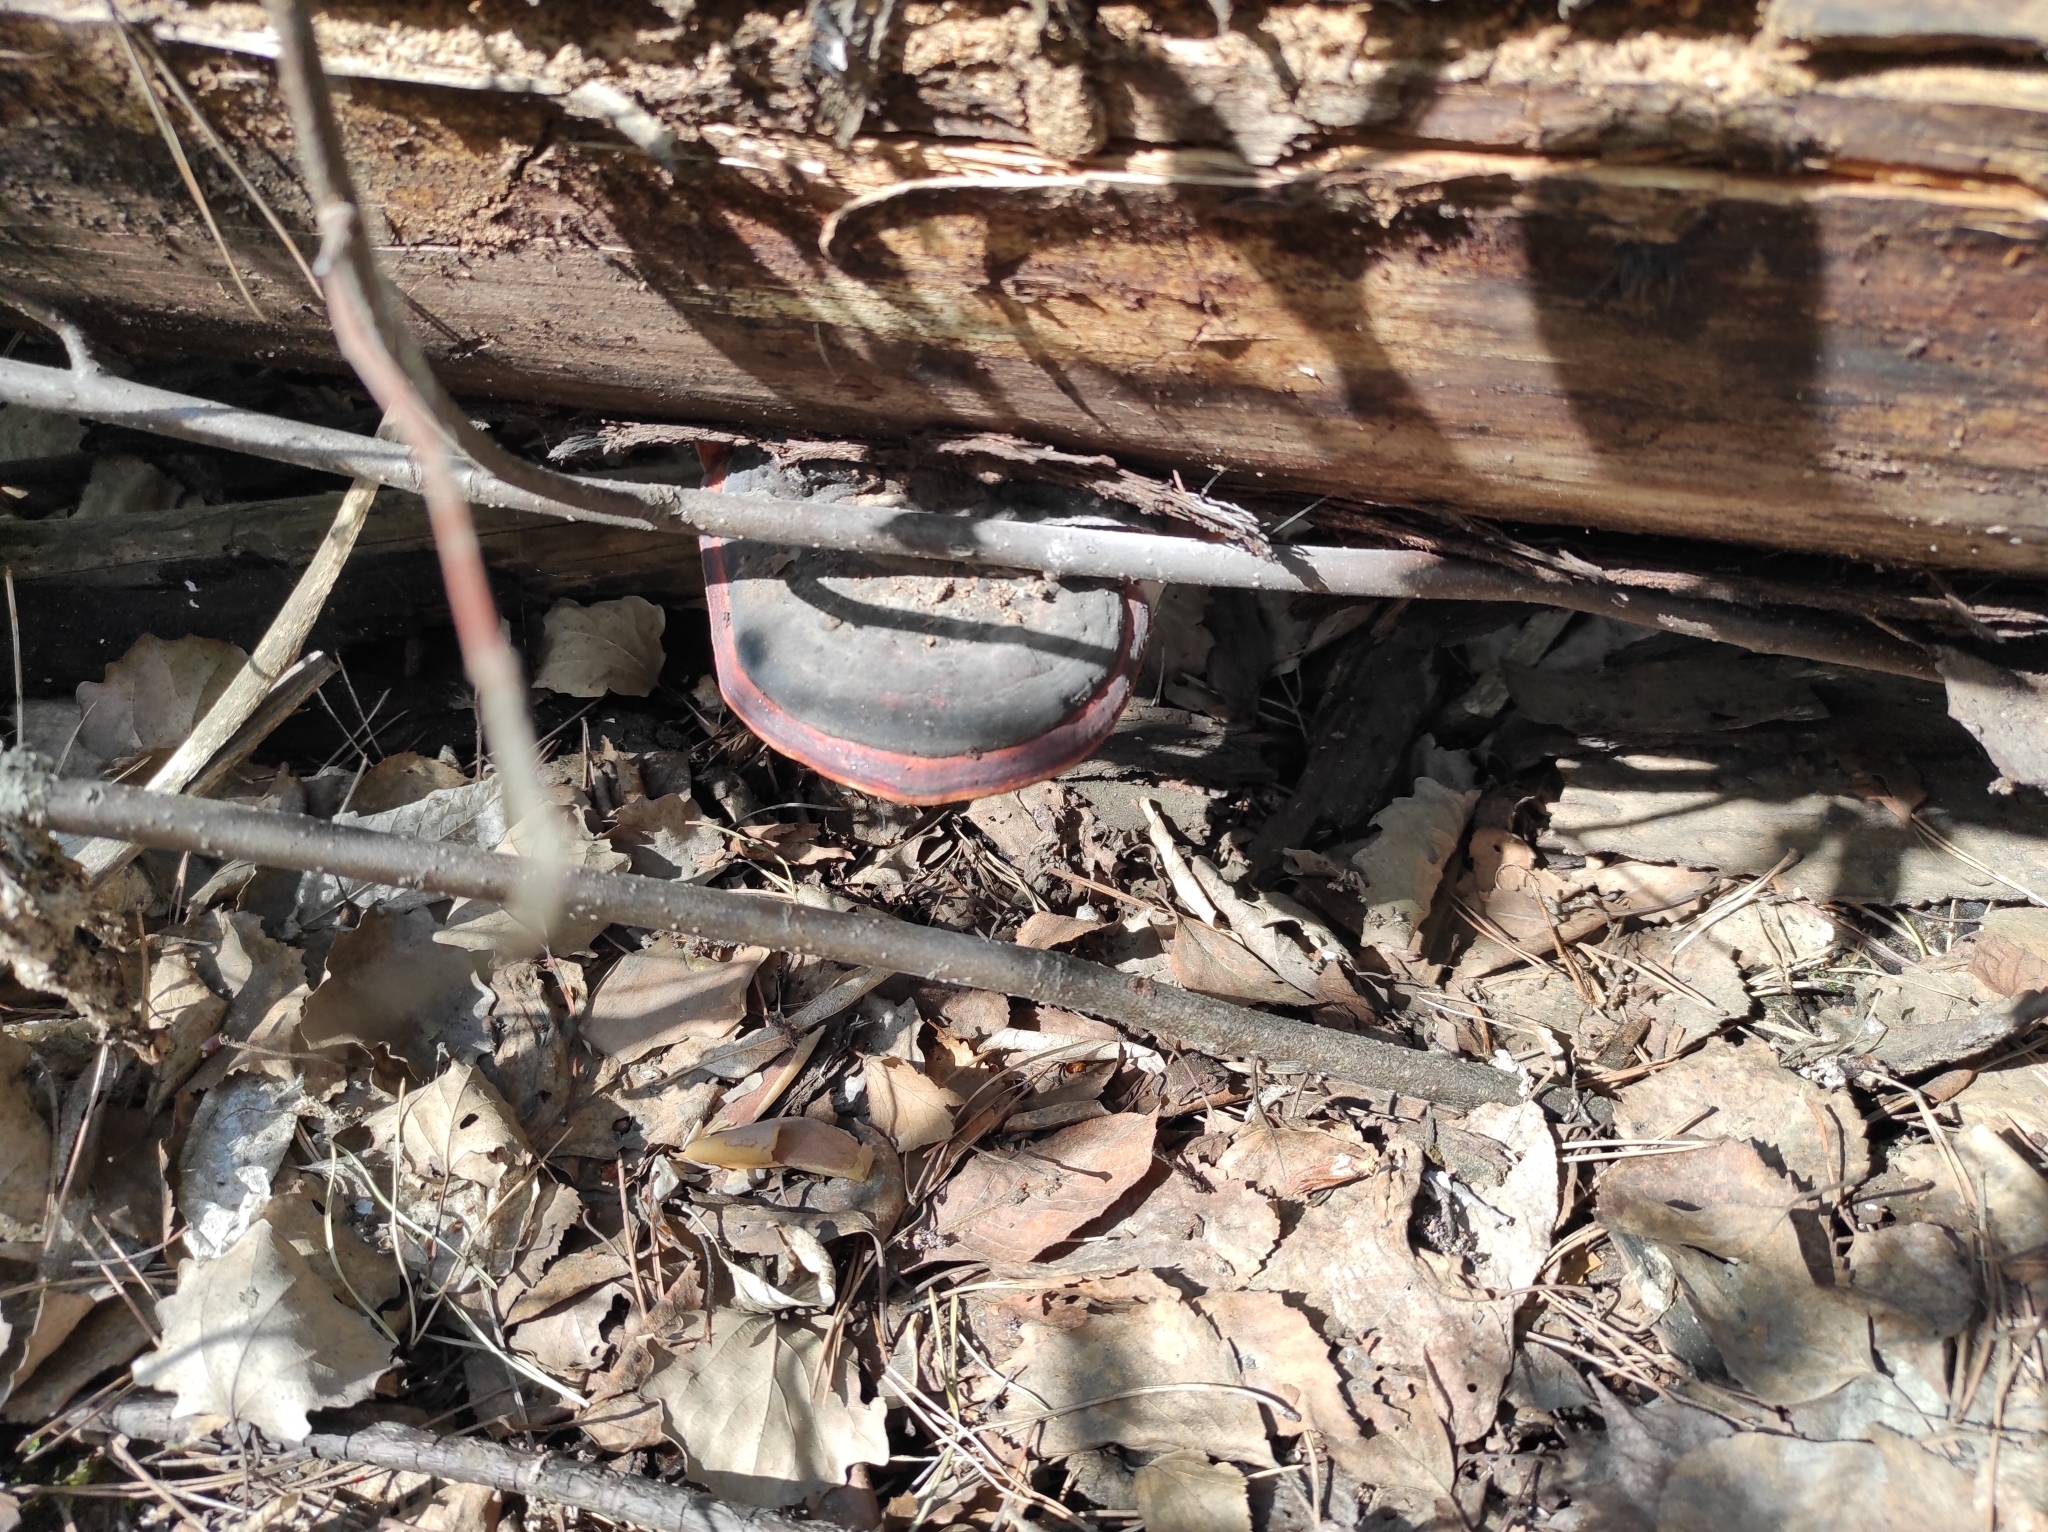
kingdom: Fungi
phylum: Basidiomycota
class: Agaricomycetes
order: Polyporales
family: Fomitopsidaceae
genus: Fomitopsis
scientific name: Fomitopsis pinicola
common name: Red-belted bracket
